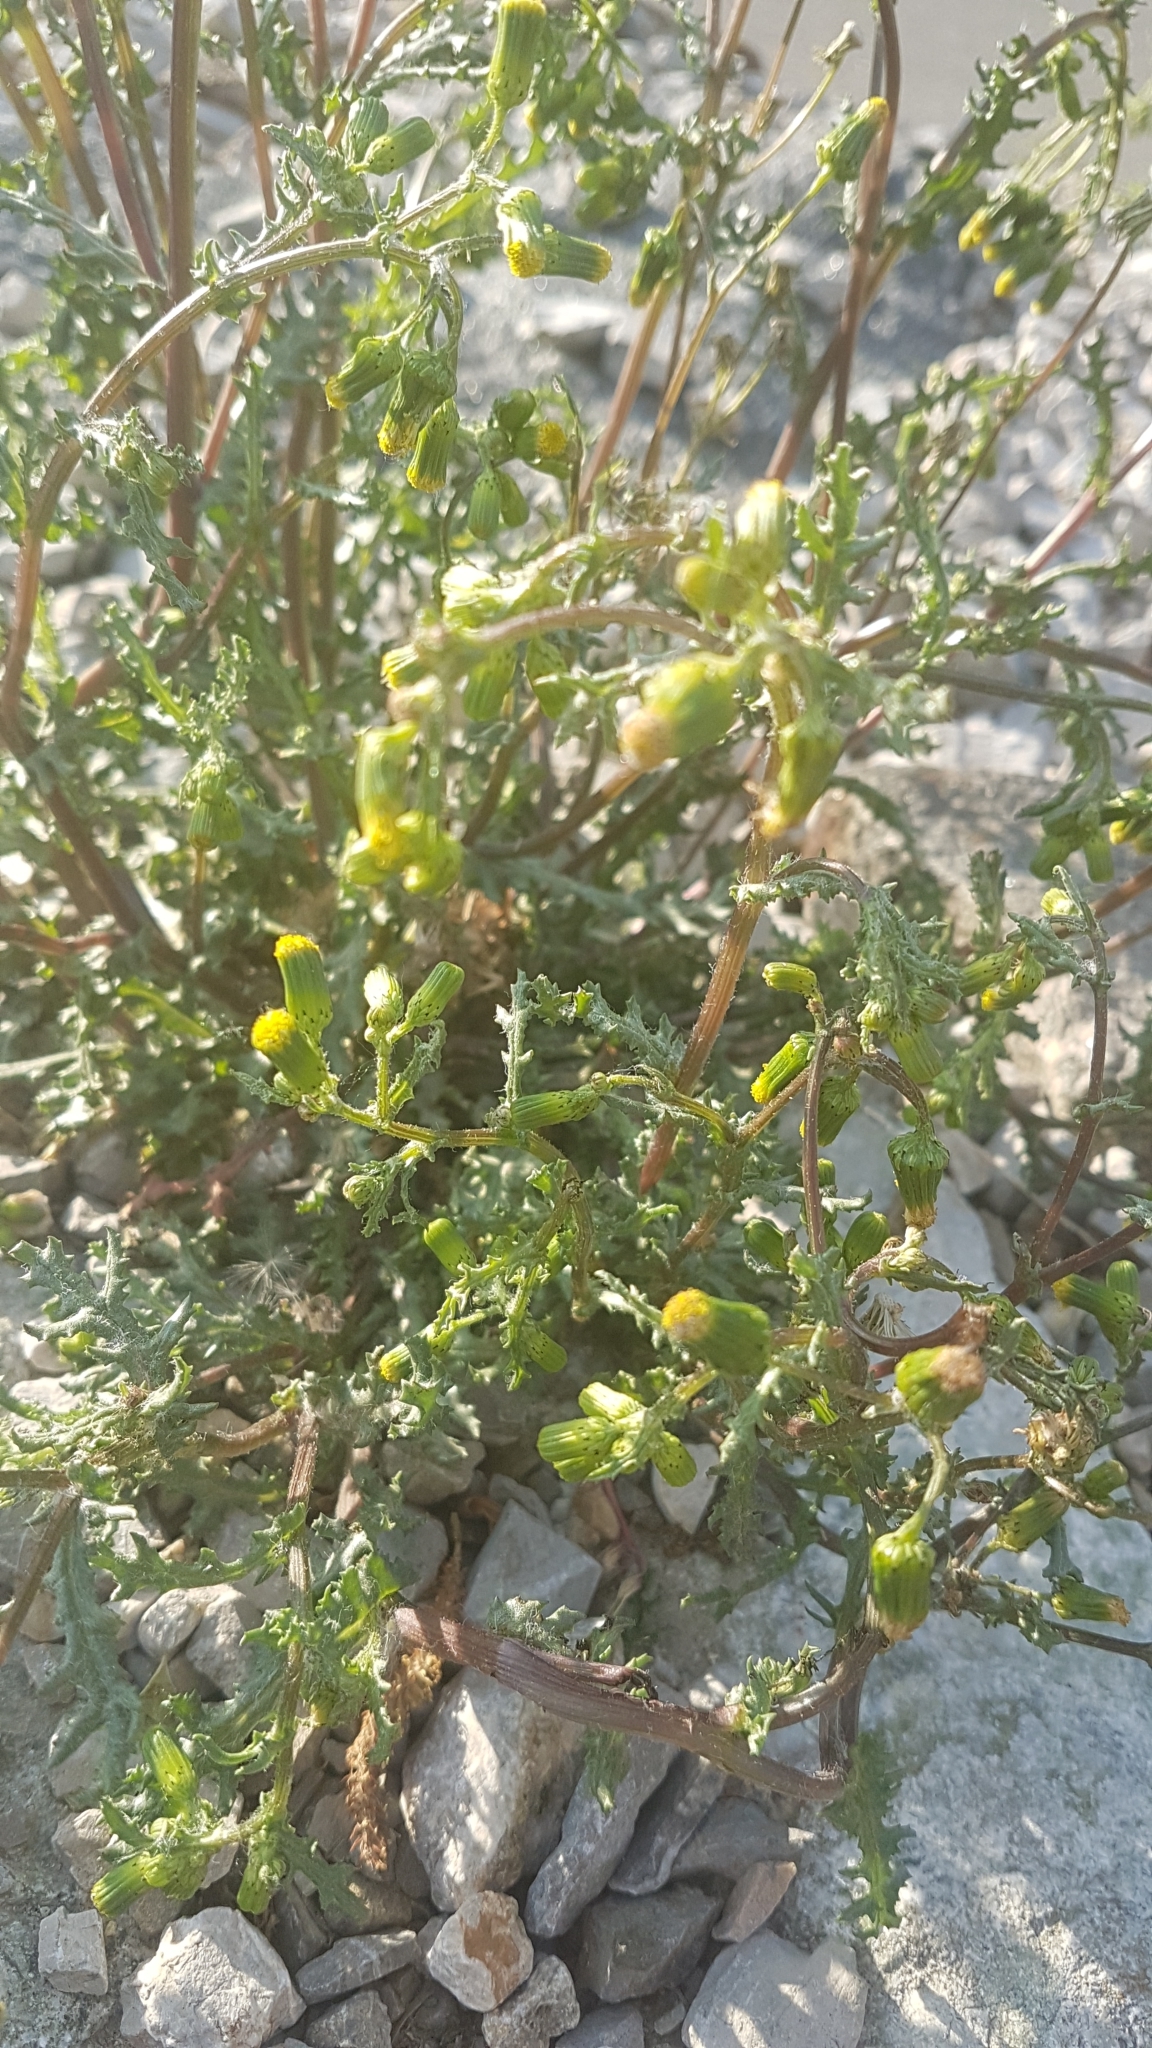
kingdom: Plantae
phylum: Tracheophyta
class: Magnoliopsida
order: Asterales
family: Asteraceae
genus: Senecio
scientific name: Senecio vulgaris
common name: Old-man-in-the-spring
